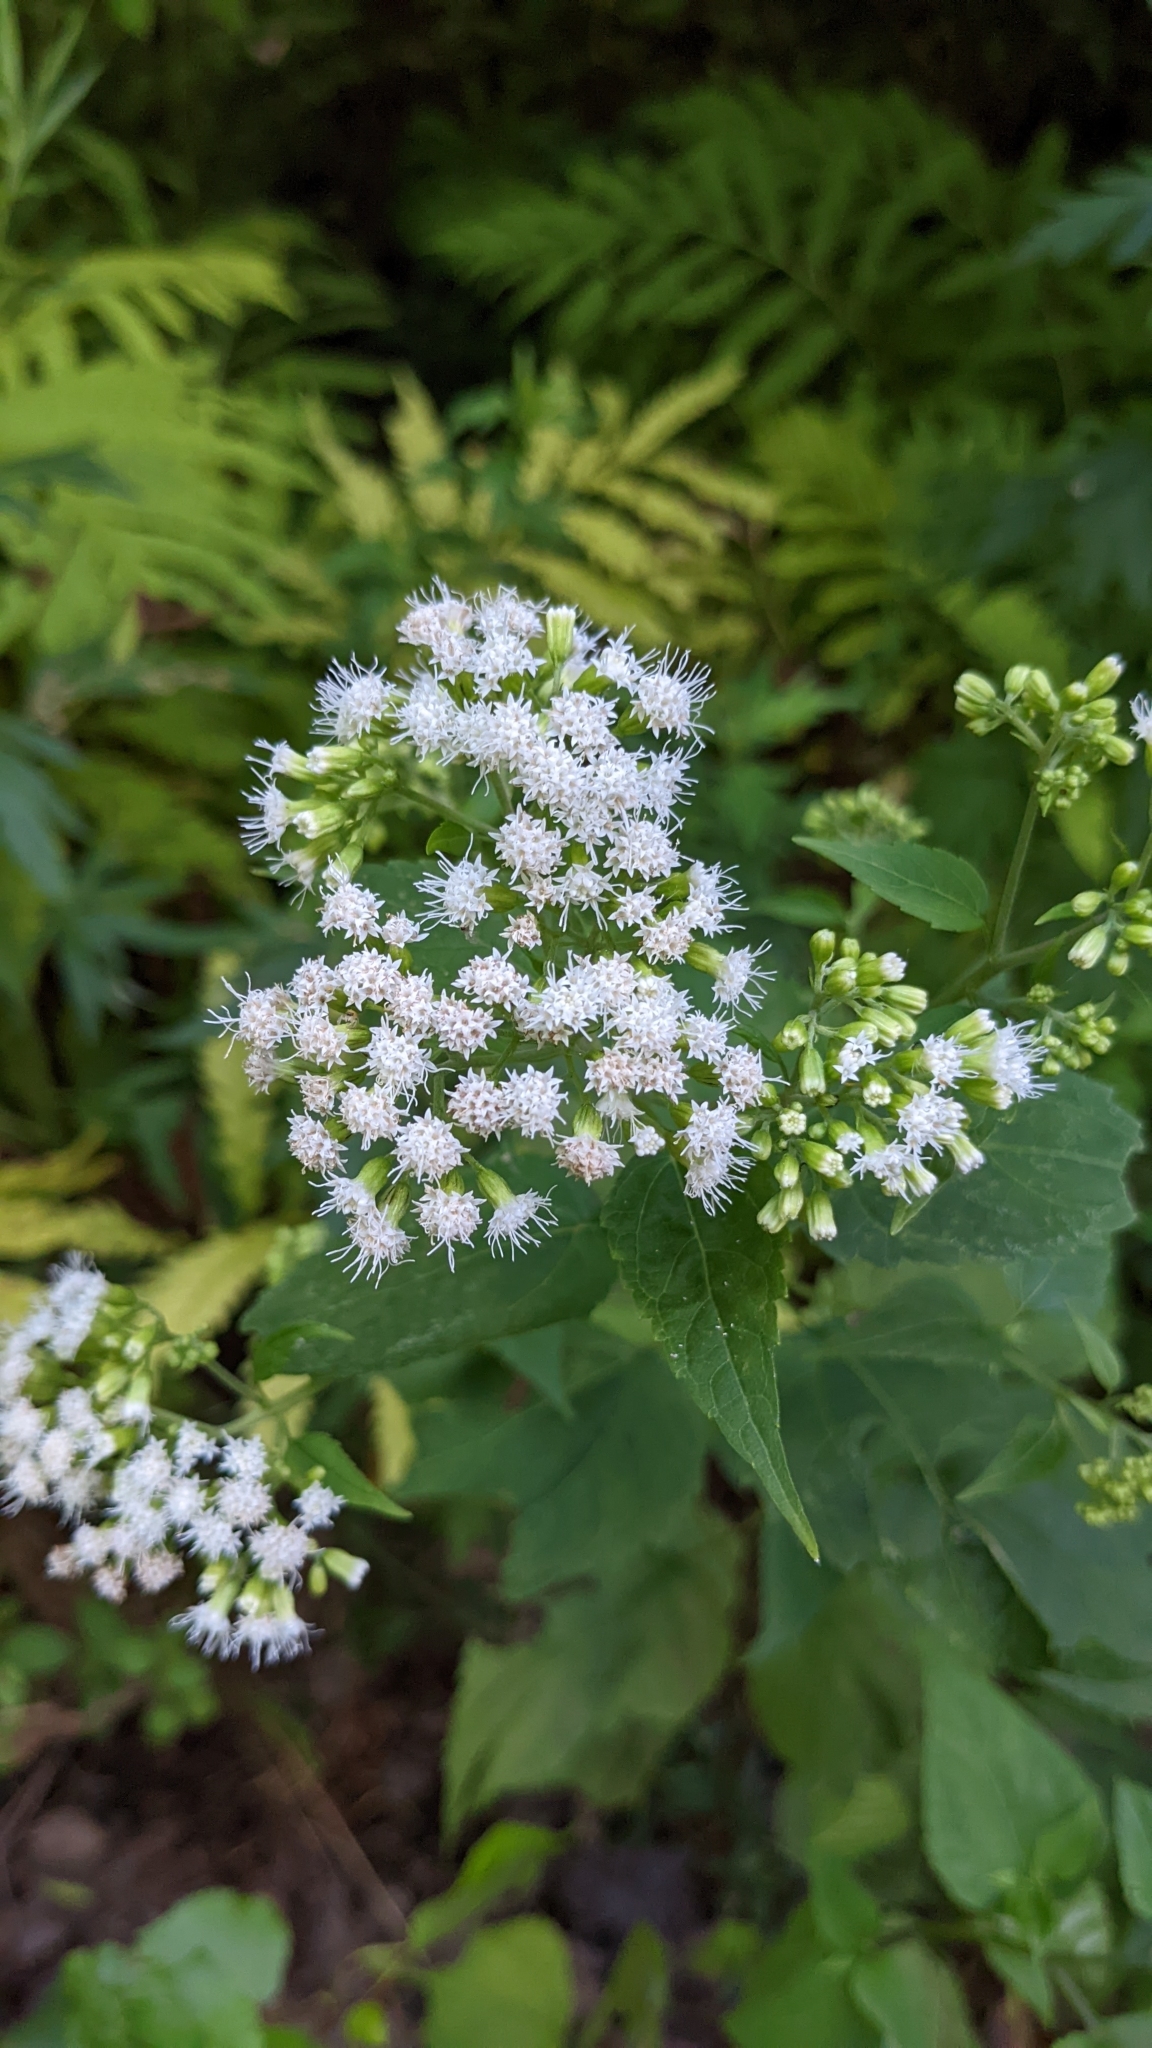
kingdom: Plantae
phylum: Tracheophyta
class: Magnoliopsida
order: Asterales
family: Asteraceae
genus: Ageratina
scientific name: Ageratina altissima
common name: White snakeroot
